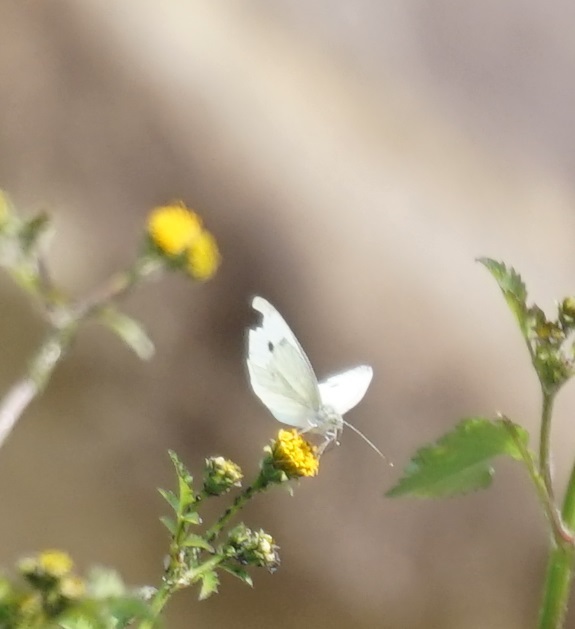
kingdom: Animalia
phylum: Arthropoda
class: Insecta
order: Lepidoptera
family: Pieridae
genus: Pieris
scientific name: Pieris rapae
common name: Small white
